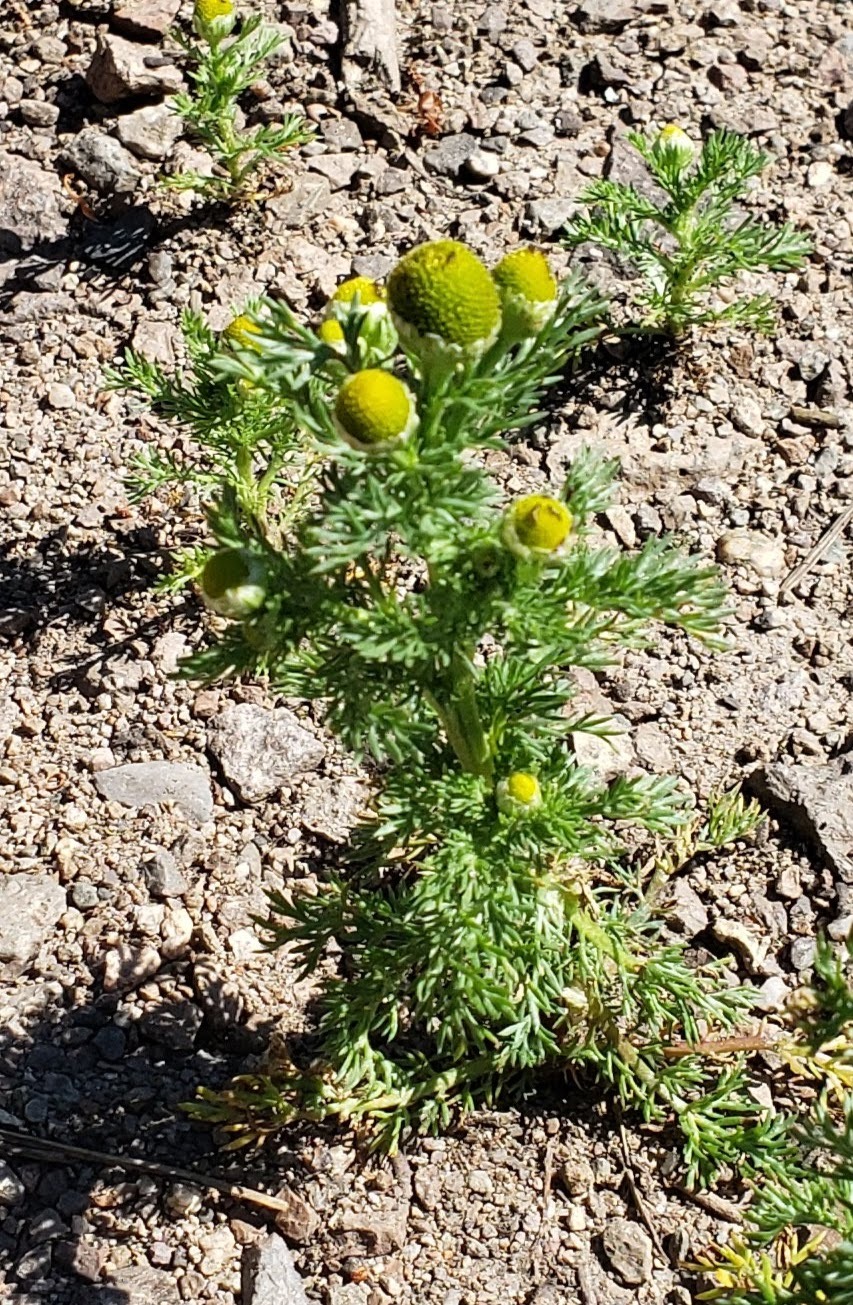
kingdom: Plantae
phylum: Tracheophyta
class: Magnoliopsida
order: Asterales
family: Asteraceae
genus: Matricaria
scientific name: Matricaria discoidea
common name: Disc mayweed
